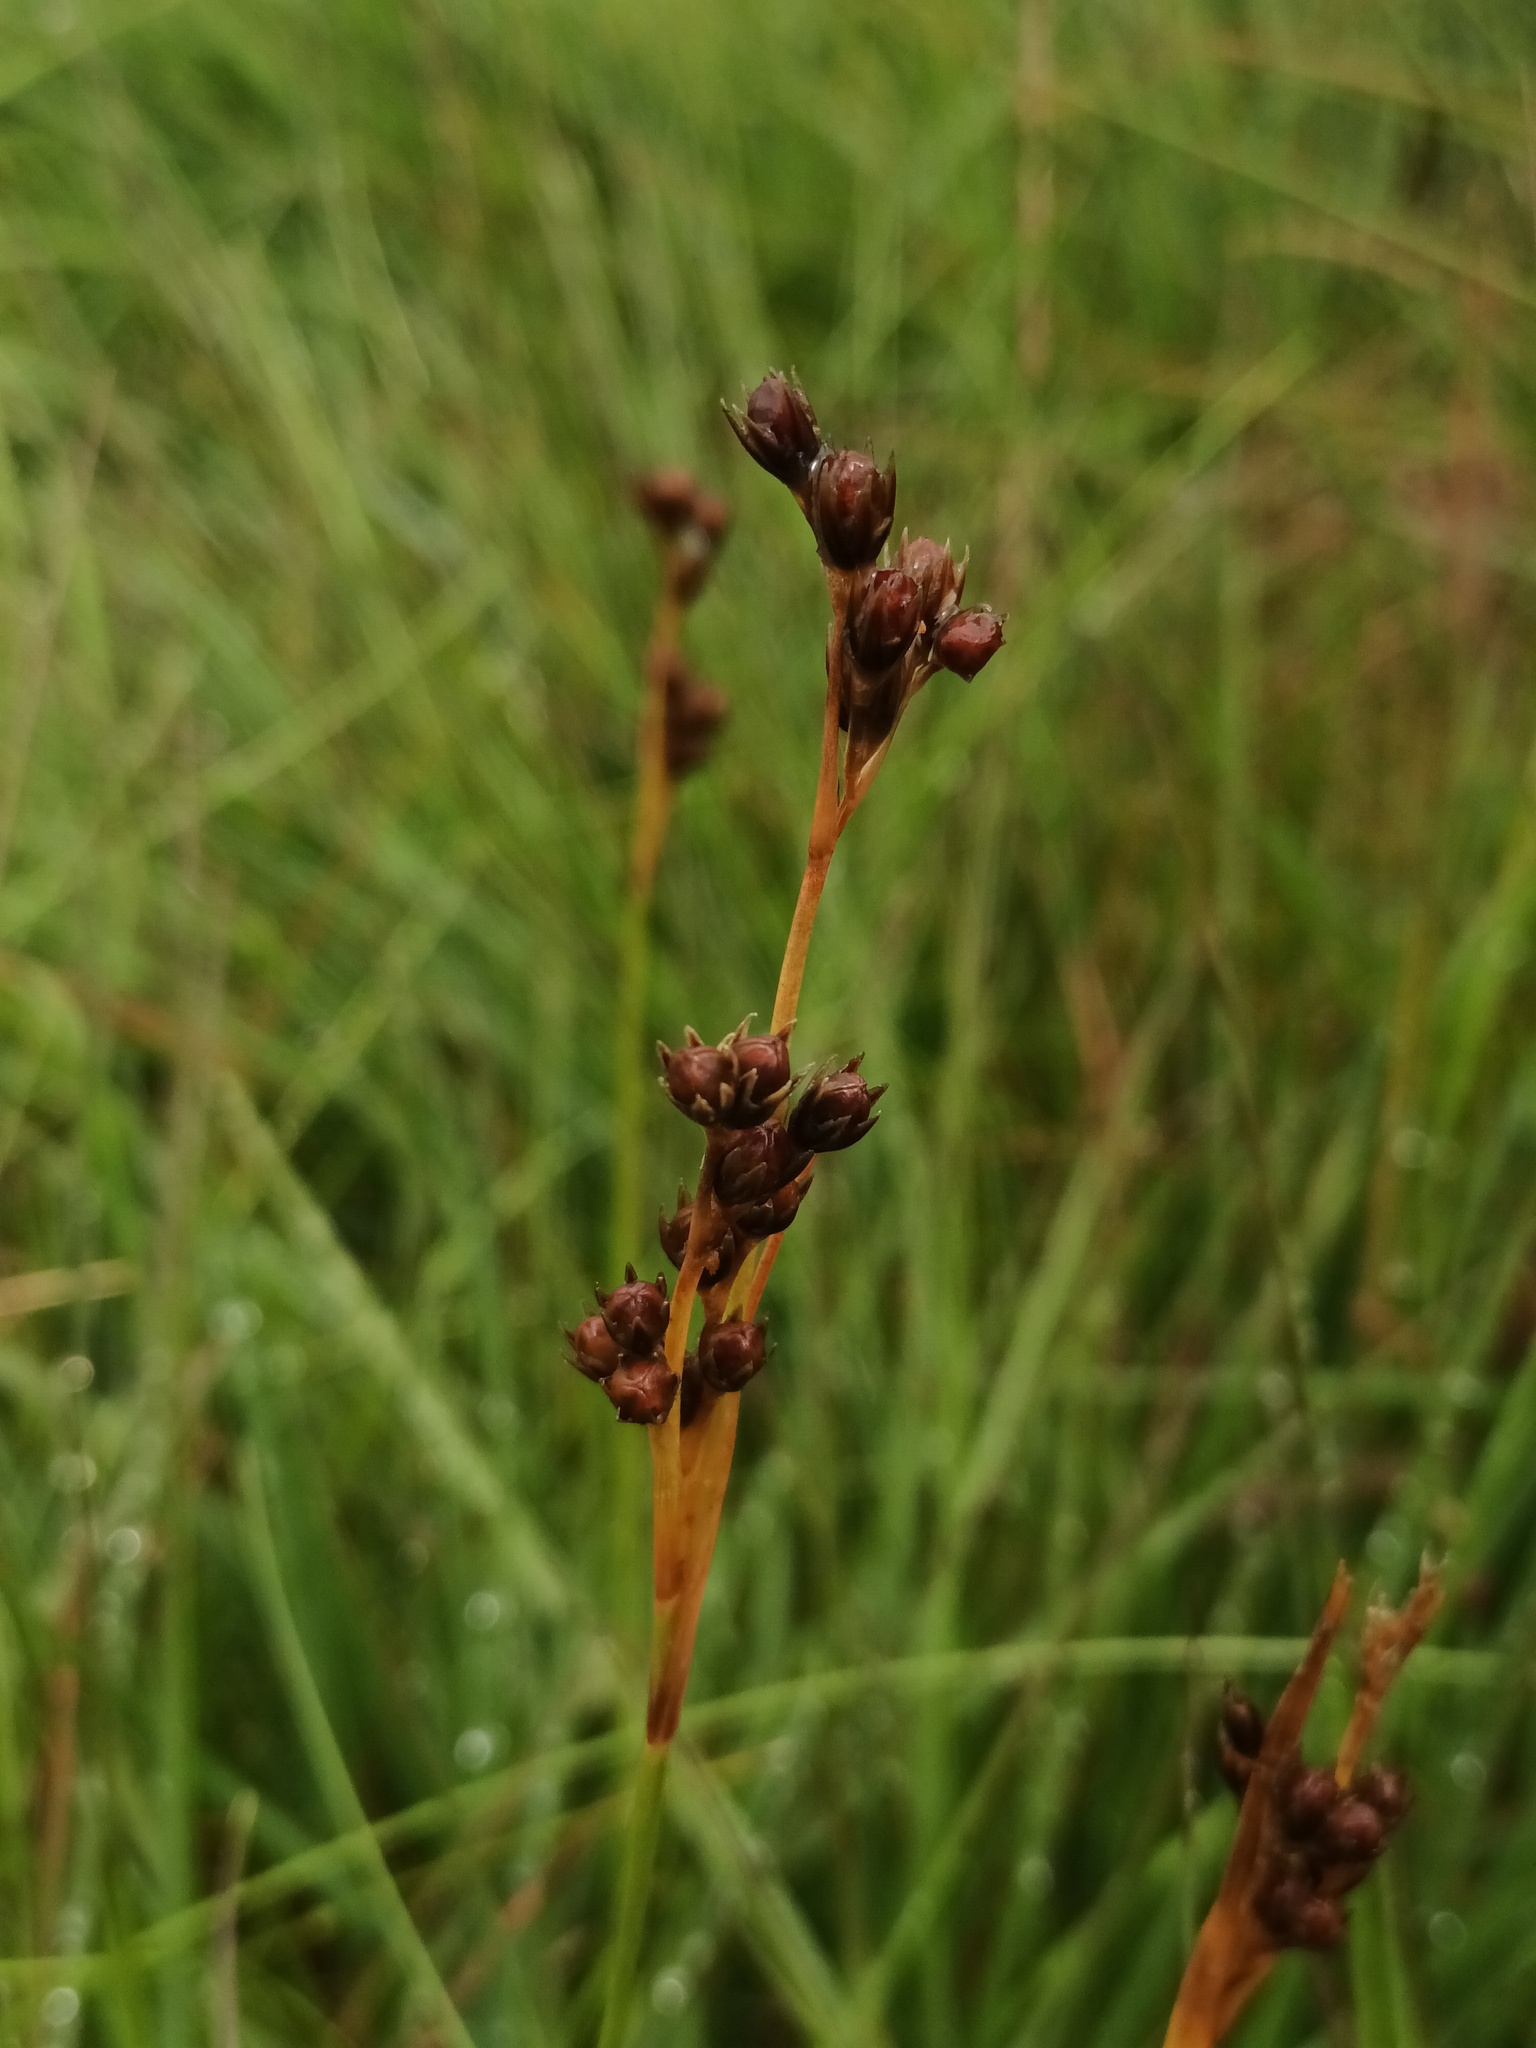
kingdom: Plantae
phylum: Tracheophyta
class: Liliopsida
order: Poales
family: Juncaceae
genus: Juncus
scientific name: Juncus squarrosus
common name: Heath rush
